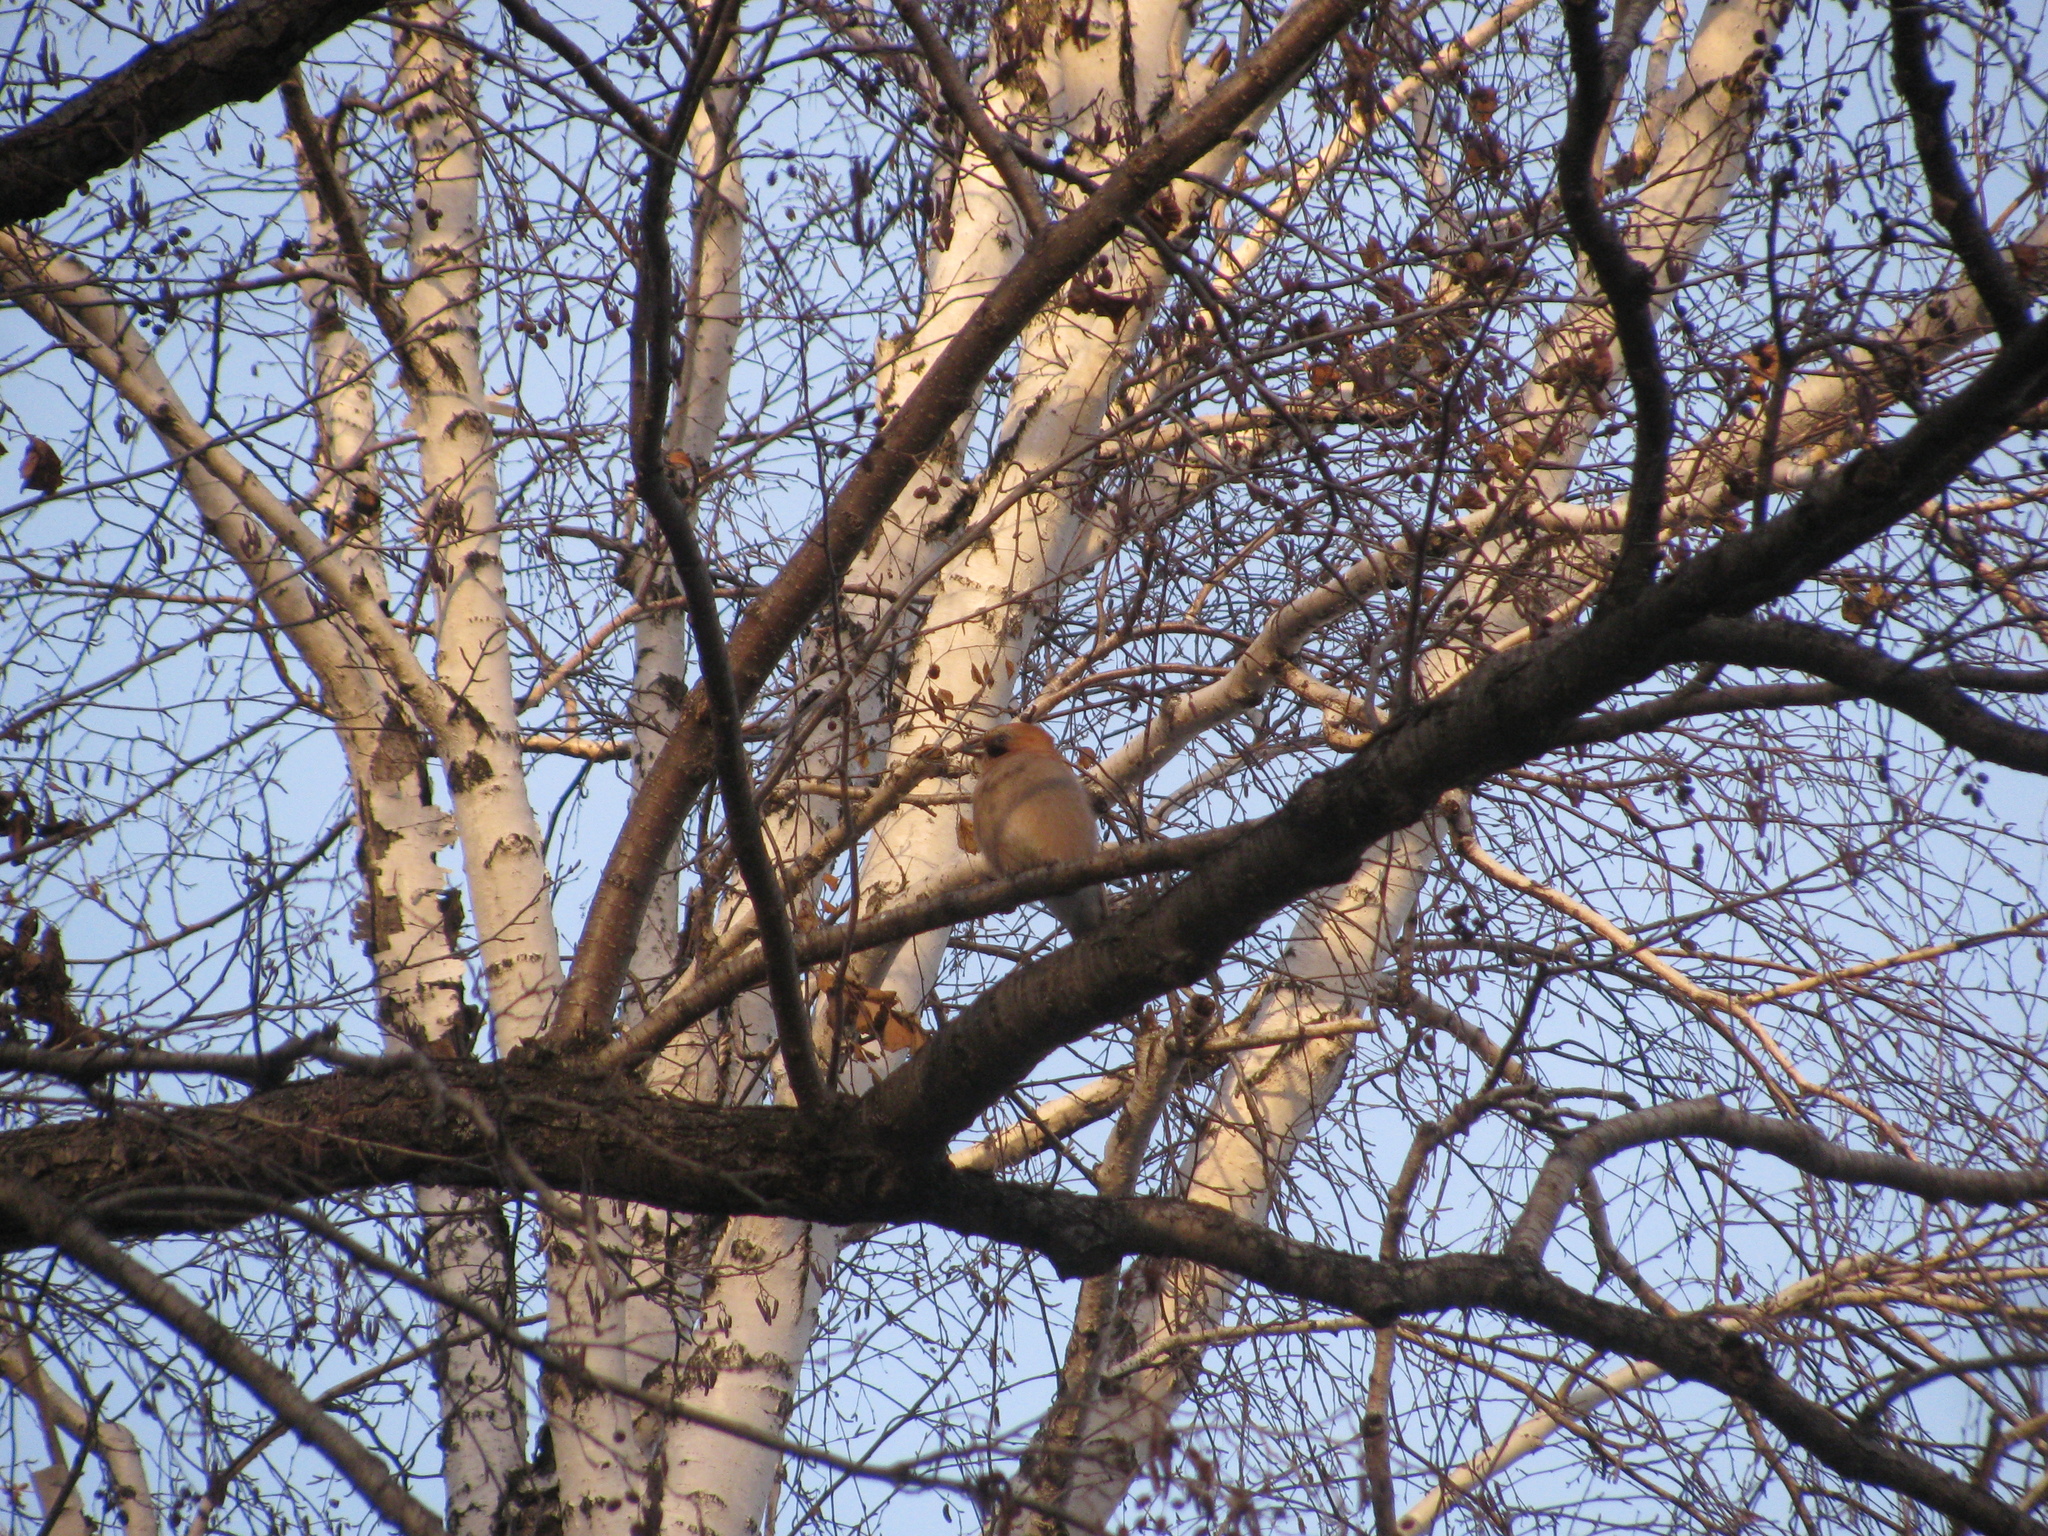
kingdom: Animalia
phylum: Chordata
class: Aves
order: Passeriformes
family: Corvidae
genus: Garrulus
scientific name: Garrulus glandarius
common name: Eurasian jay
